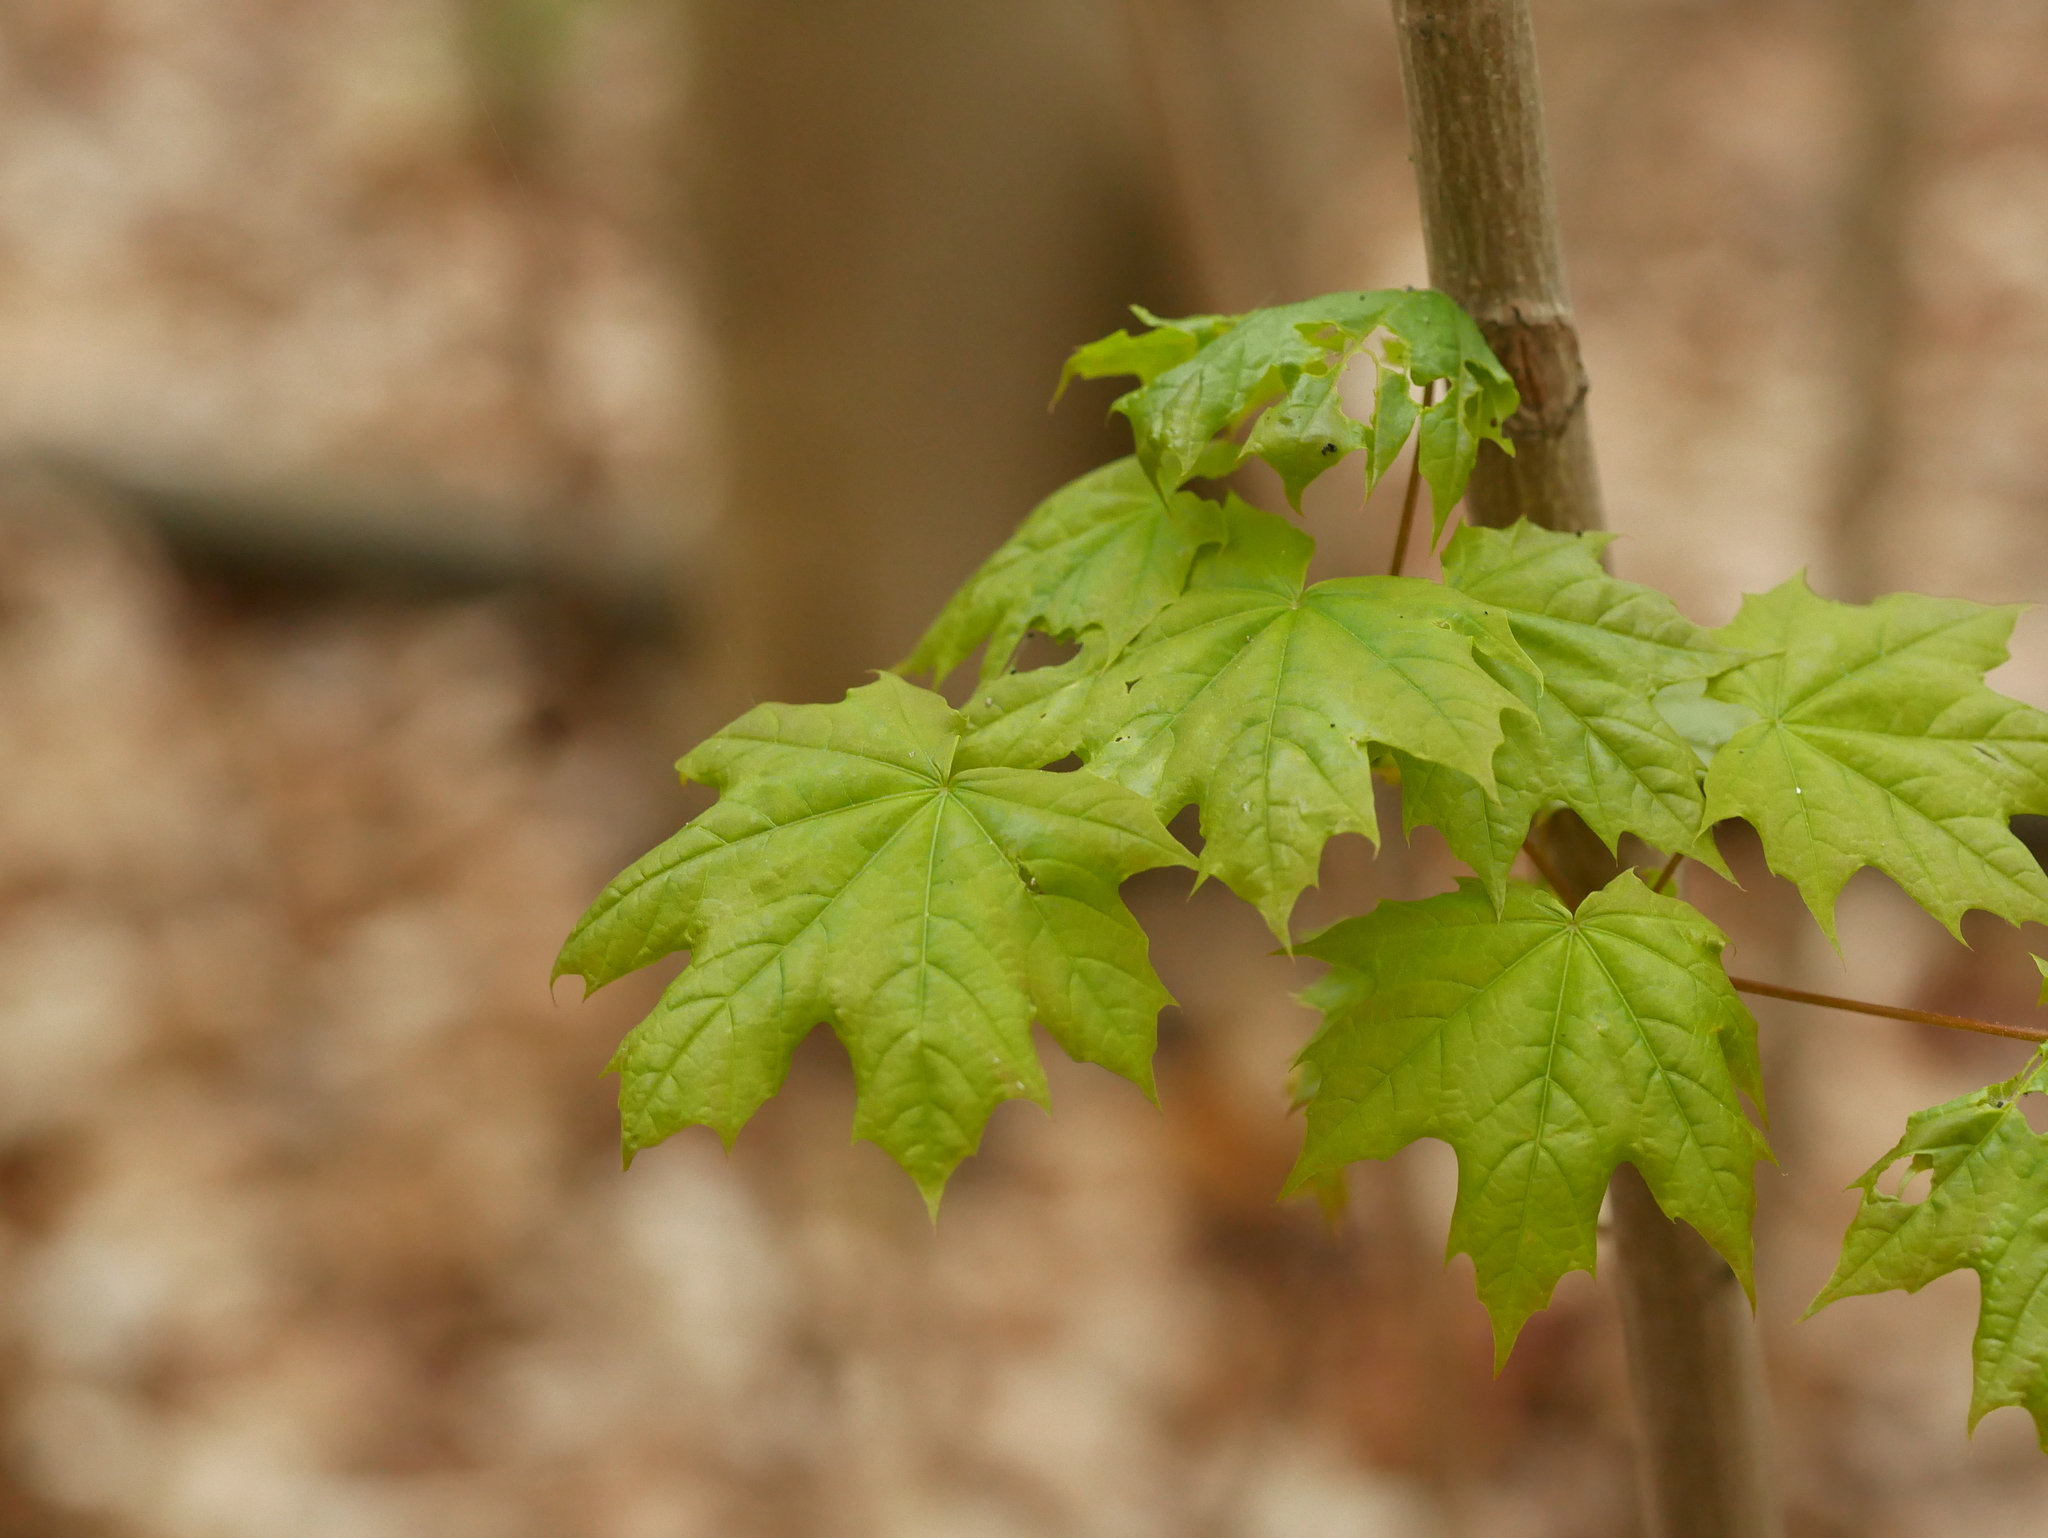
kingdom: Plantae
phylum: Tracheophyta
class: Magnoliopsida
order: Sapindales
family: Sapindaceae
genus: Acer
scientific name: Acer platanoides
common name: Norway maple
